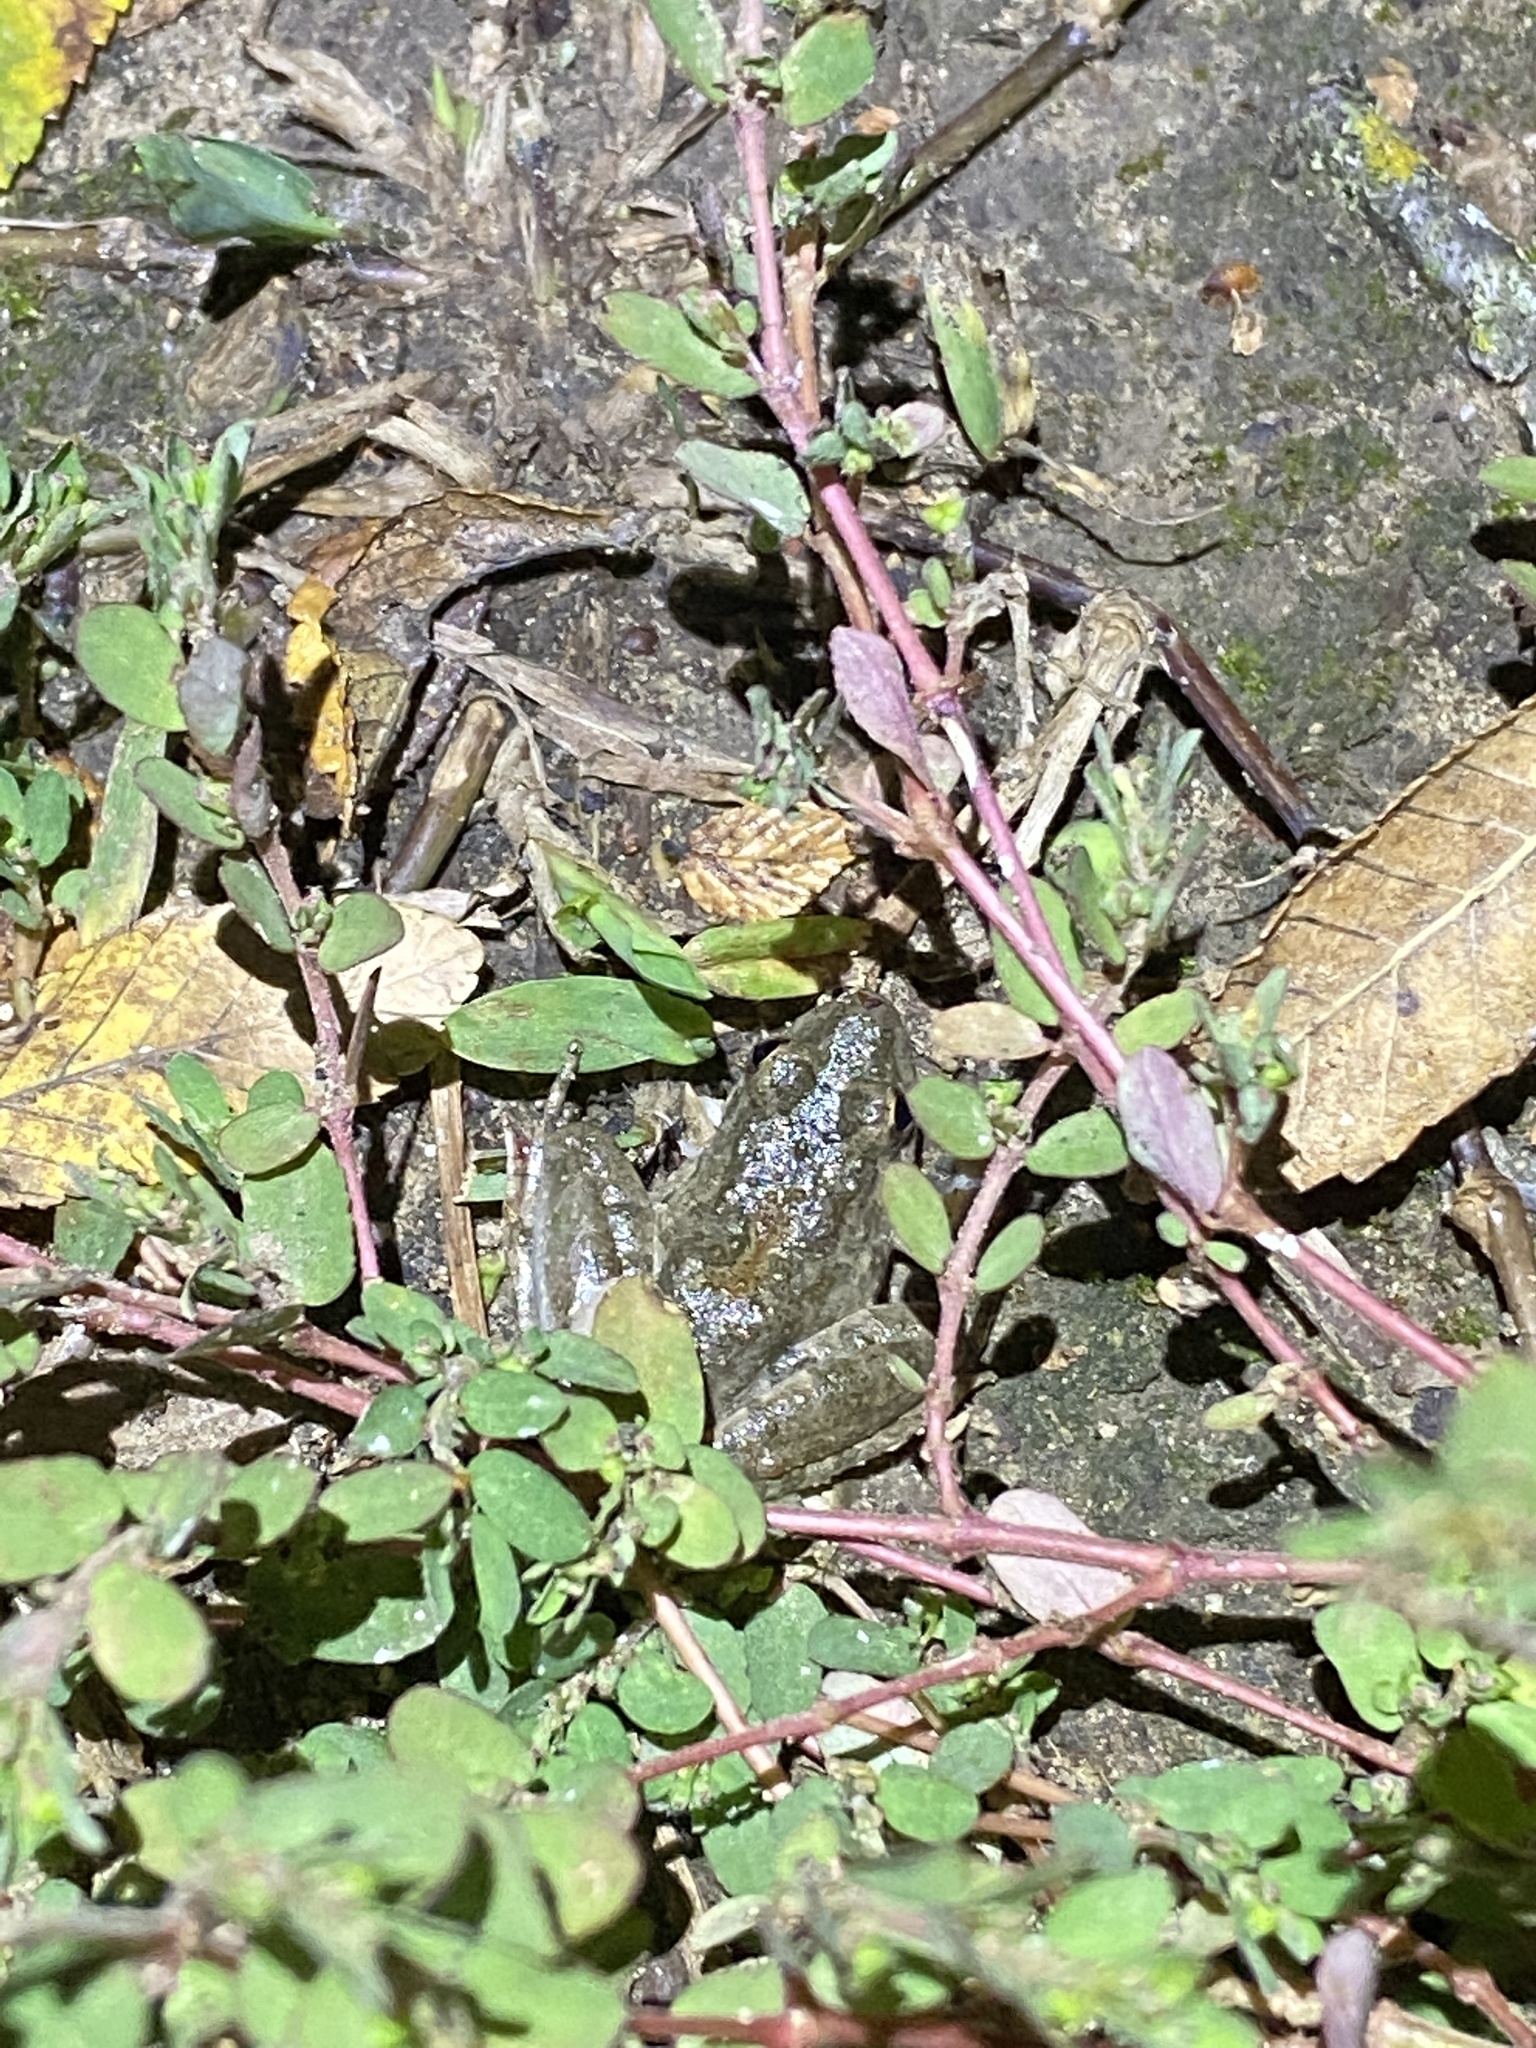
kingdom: Animalia
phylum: Chordata
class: Amphibia
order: Anura
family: Hylidae
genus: Acris
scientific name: Acris blanchardi
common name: Blanchard's cricket frog
